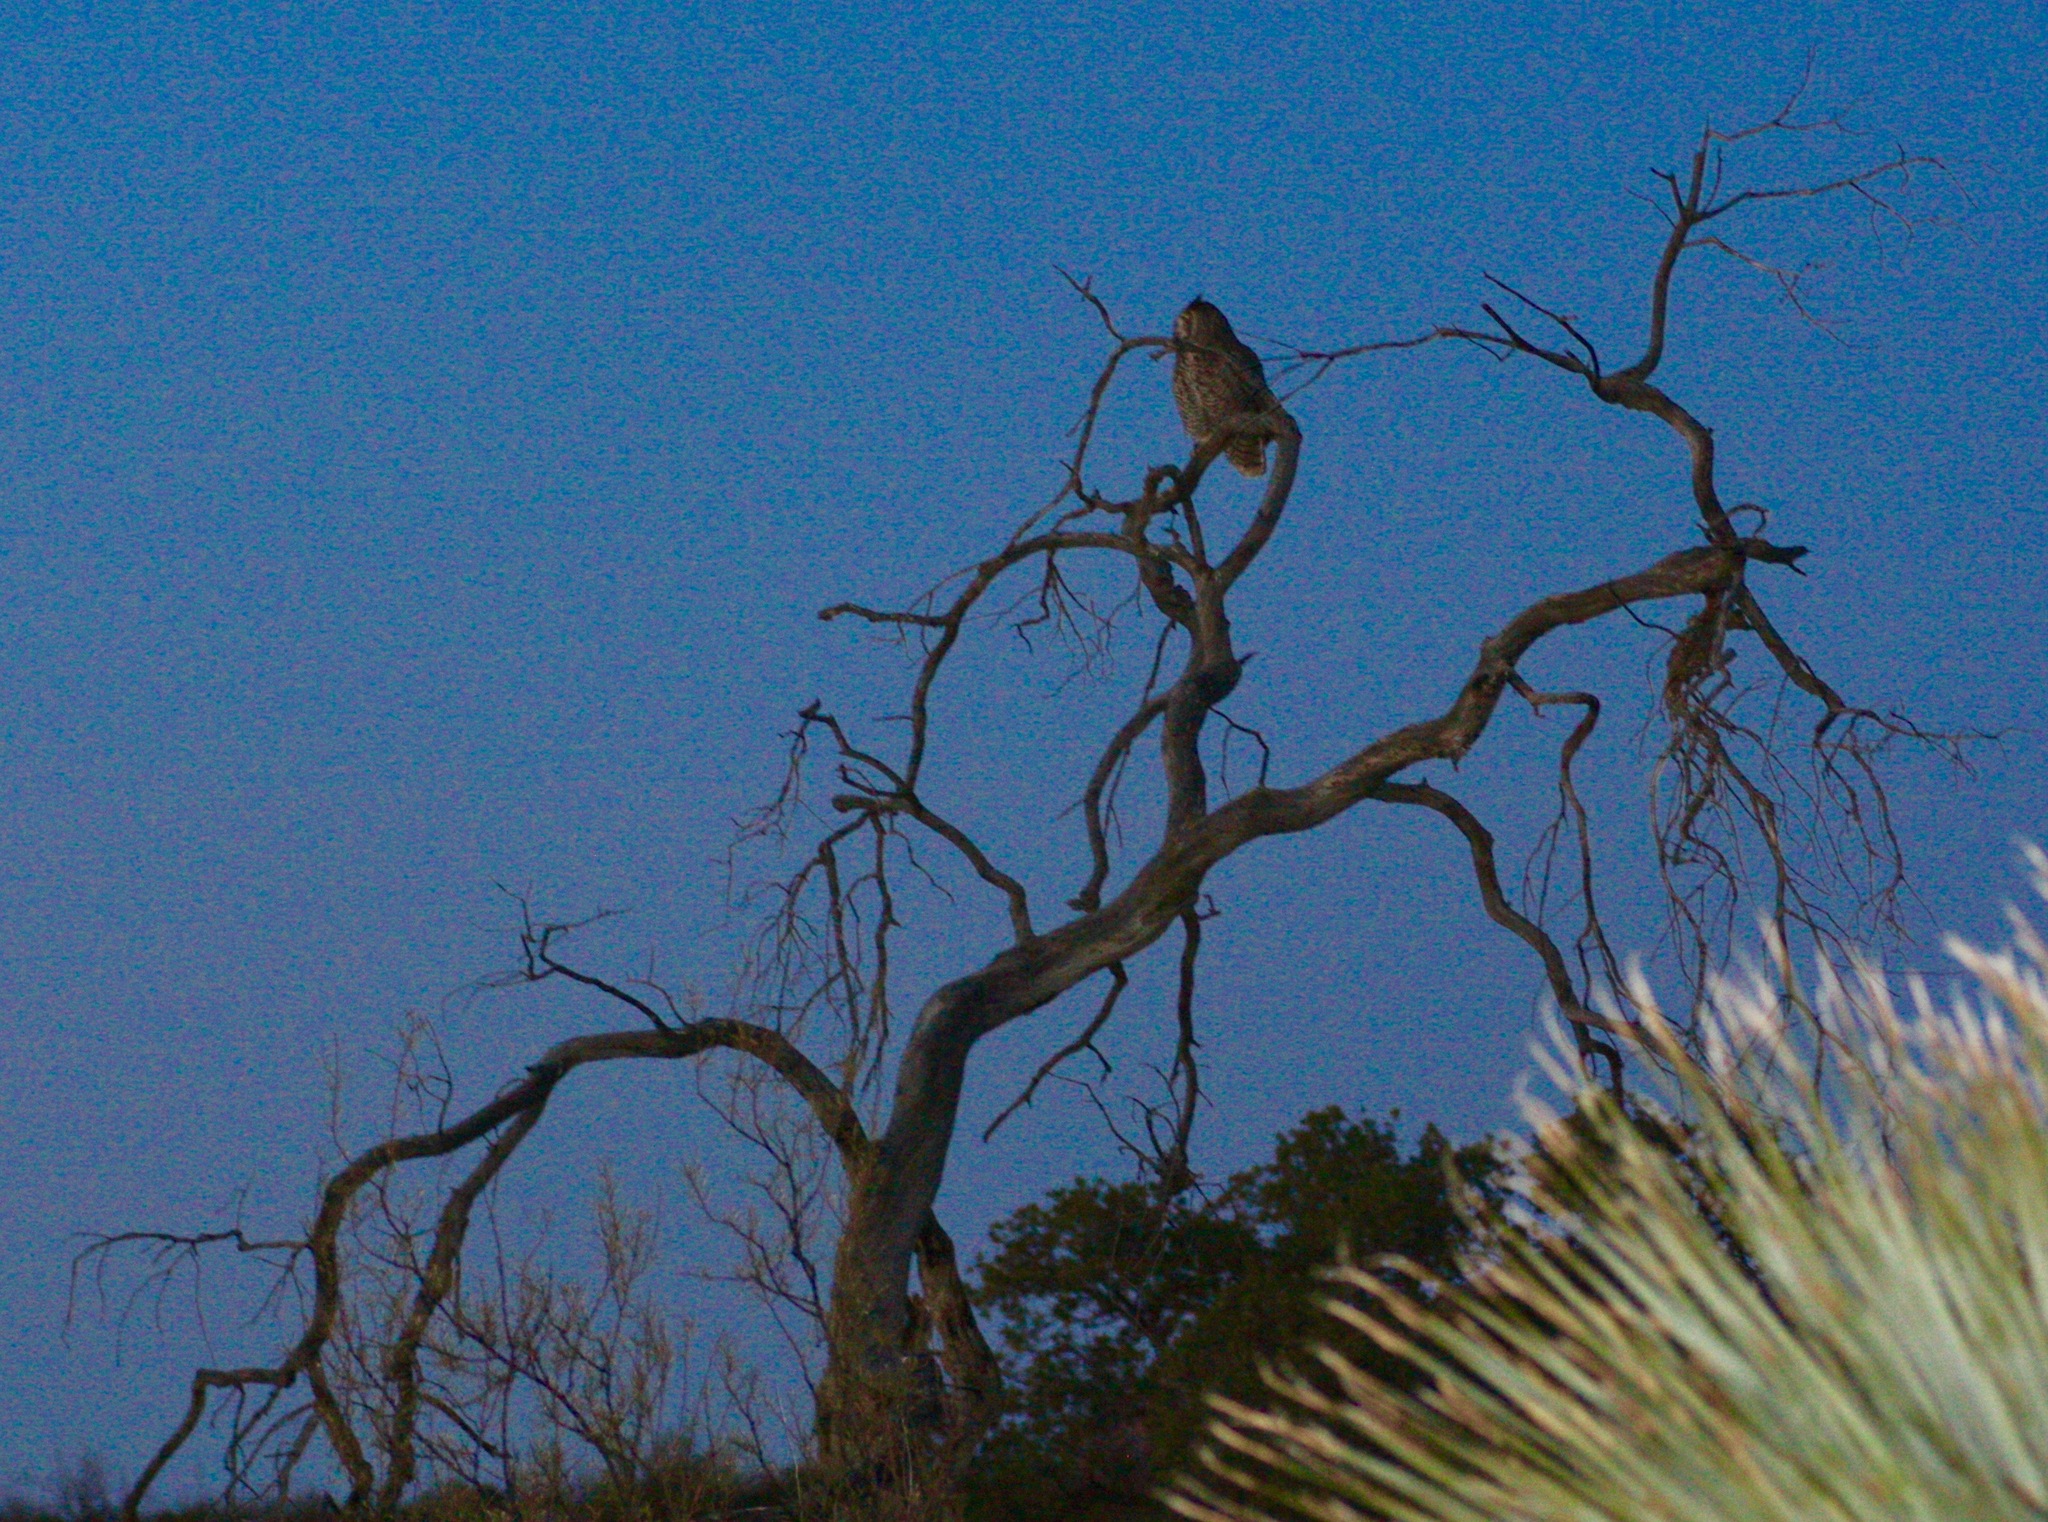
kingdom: Animalia
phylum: Chordata
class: Aves
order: Strigiformes
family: Strigidae
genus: Bubo
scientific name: Bubo virginianus
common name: Great horned owl
